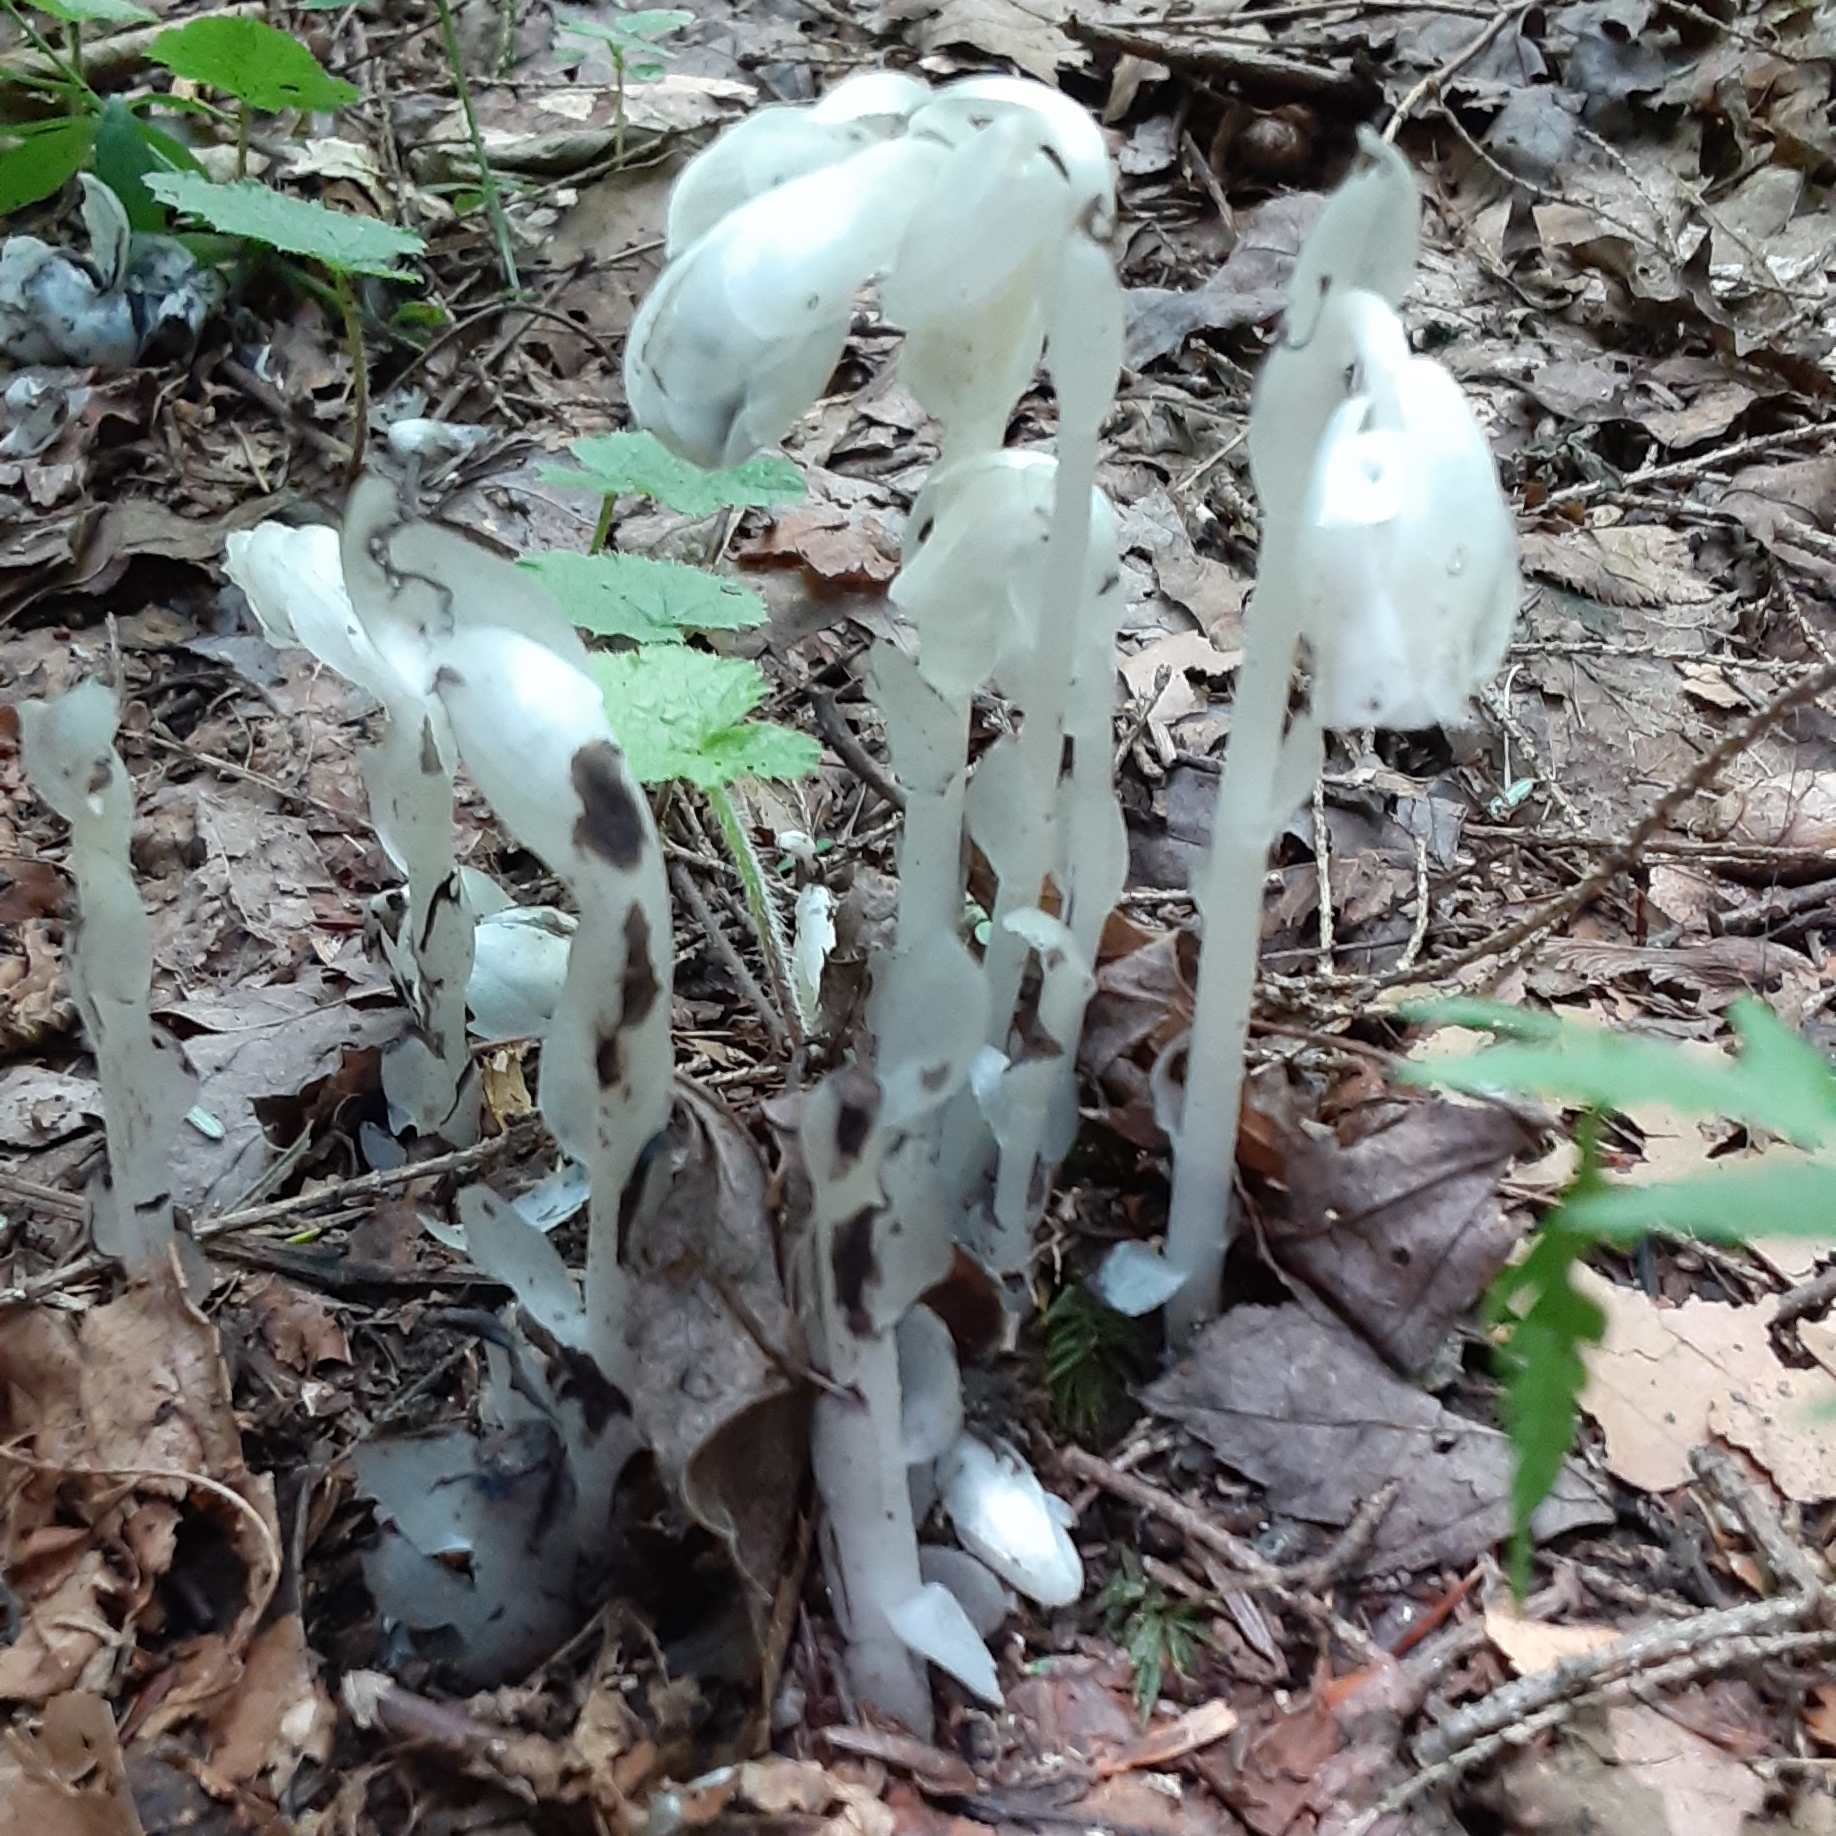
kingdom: Plantae
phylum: Tracheophyta
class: Magnoliopsida
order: Ericales
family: Ericaceae
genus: Monotropa
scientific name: Monotropa uniflora
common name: Convulsion root
